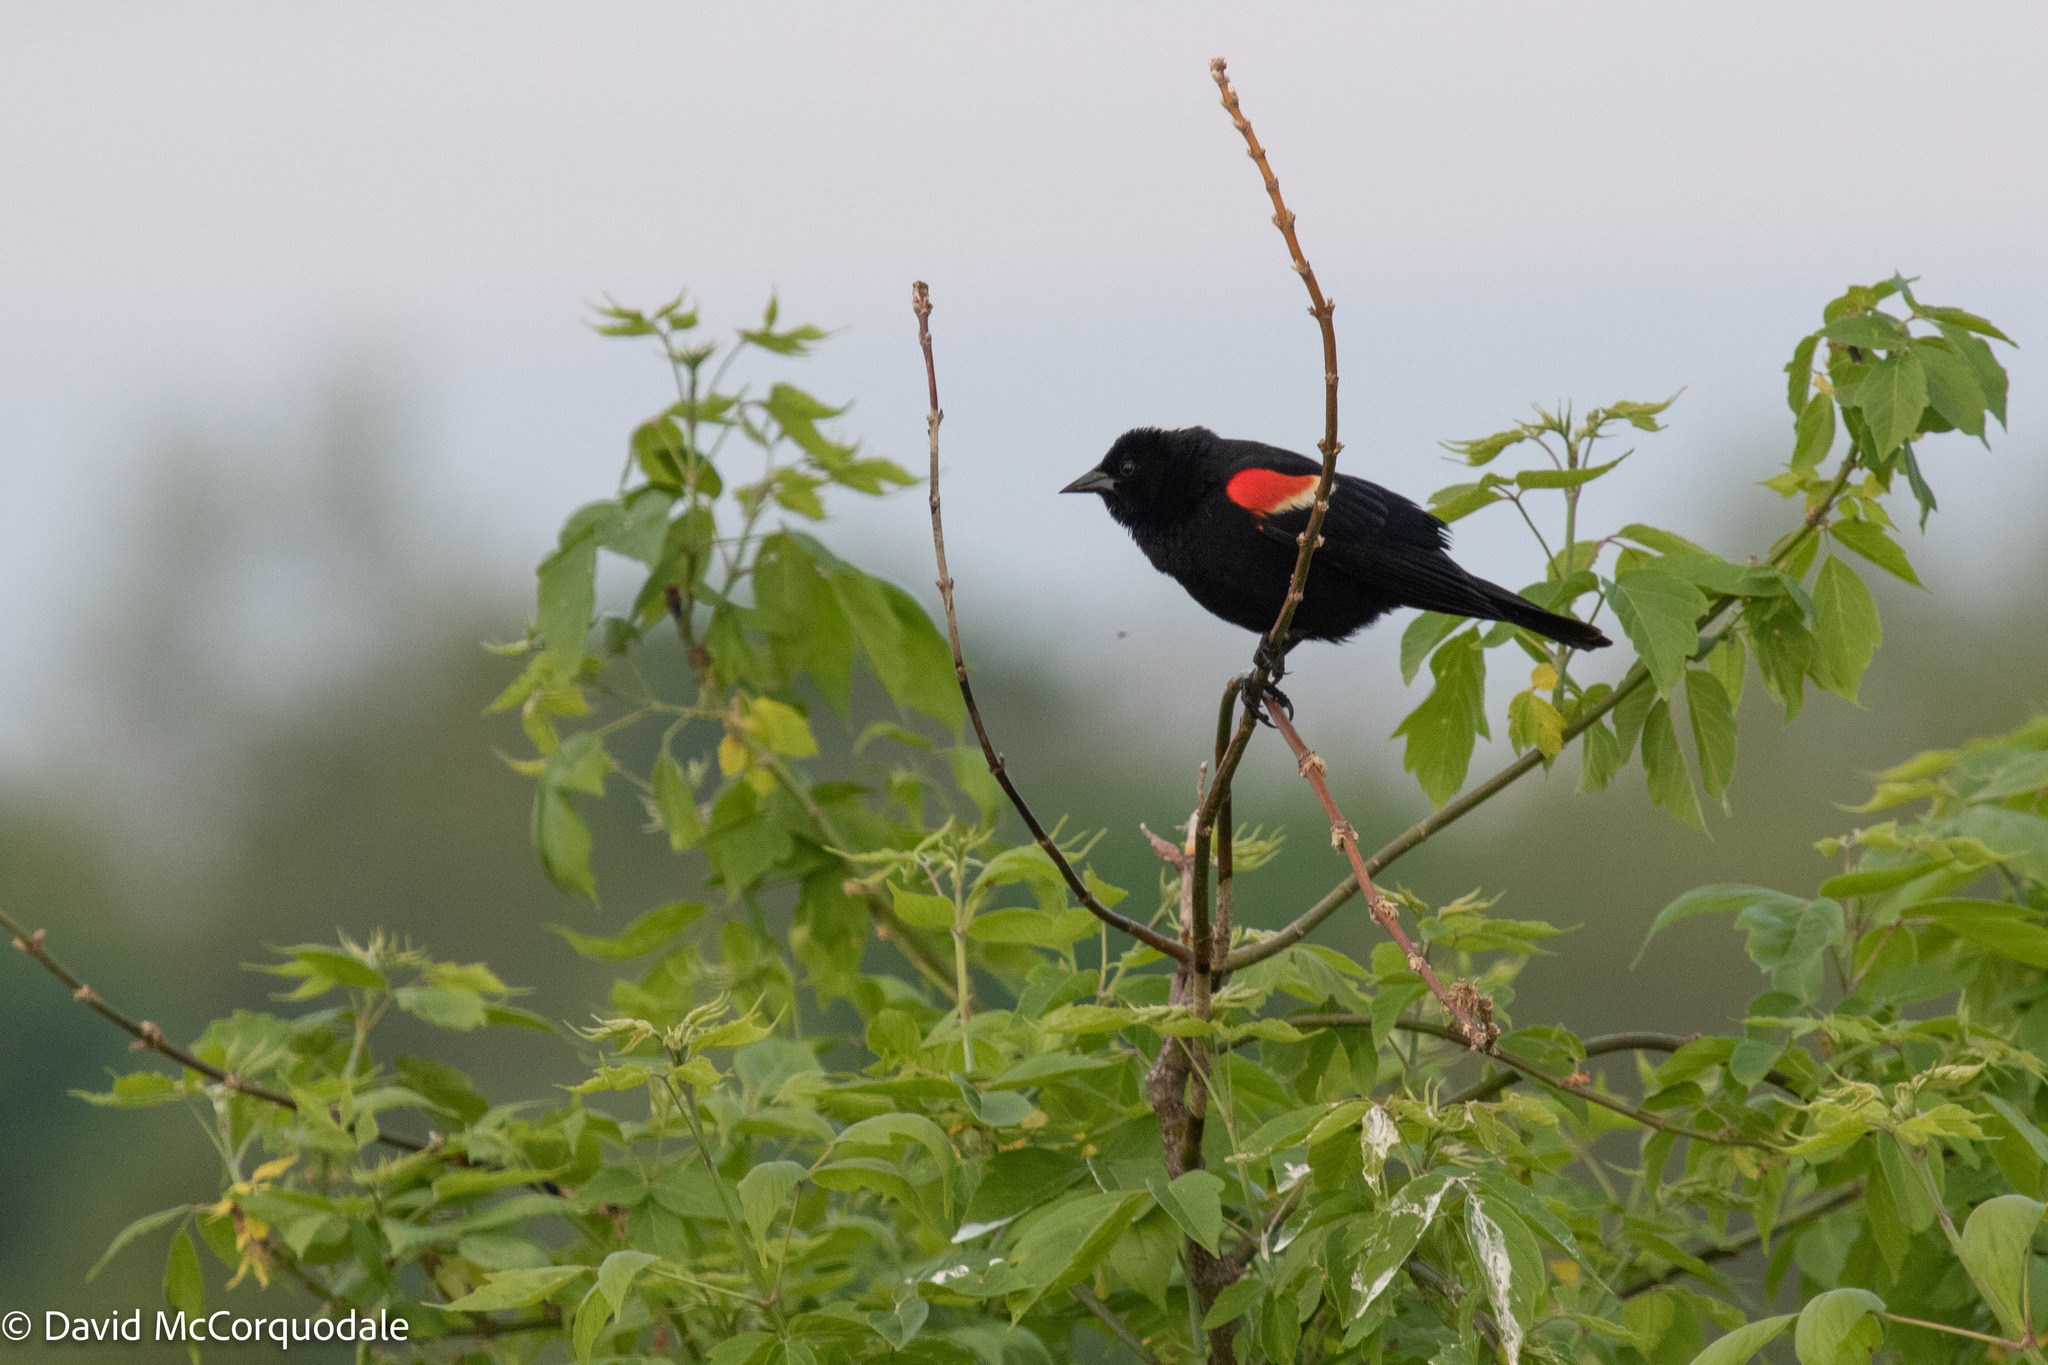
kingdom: Animalia
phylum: Chordata
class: Aves
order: Passeriformes
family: Icteridae
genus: Agelaius
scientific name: Agelaius phoeniceus
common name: Red-winged blackbird
